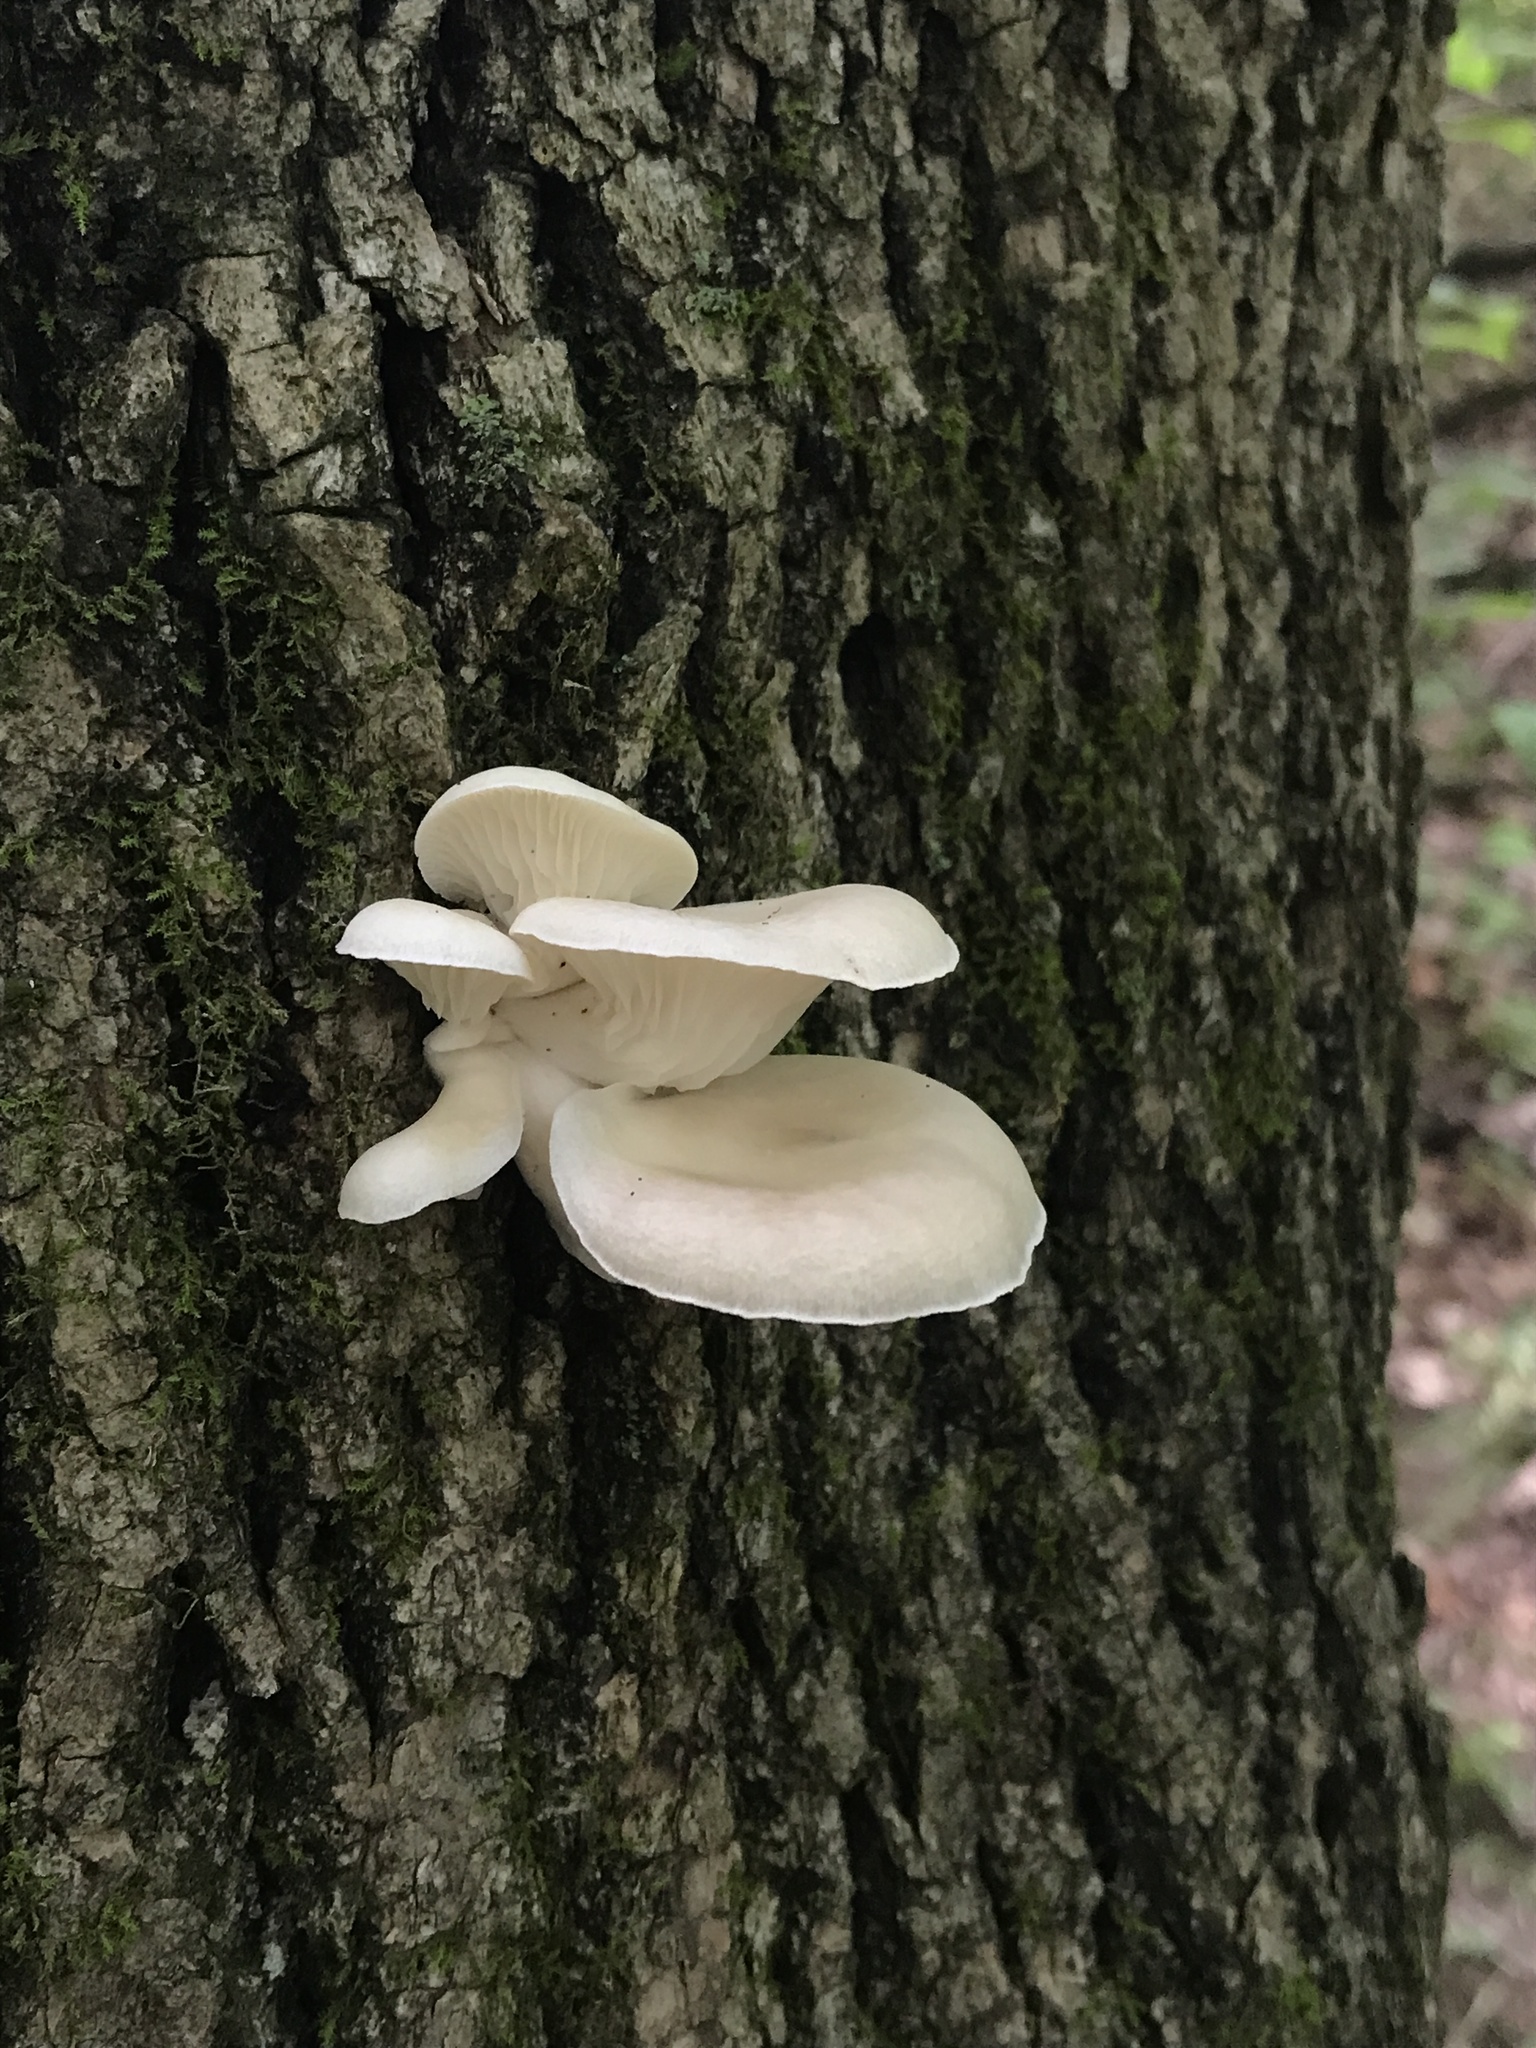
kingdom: Fungi
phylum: Basidiomycota
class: Agaricomycetes
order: Agaricales
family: Pleurotaceae
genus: Pleurotus
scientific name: Pleurotus pulmonarius
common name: Pale oyster
